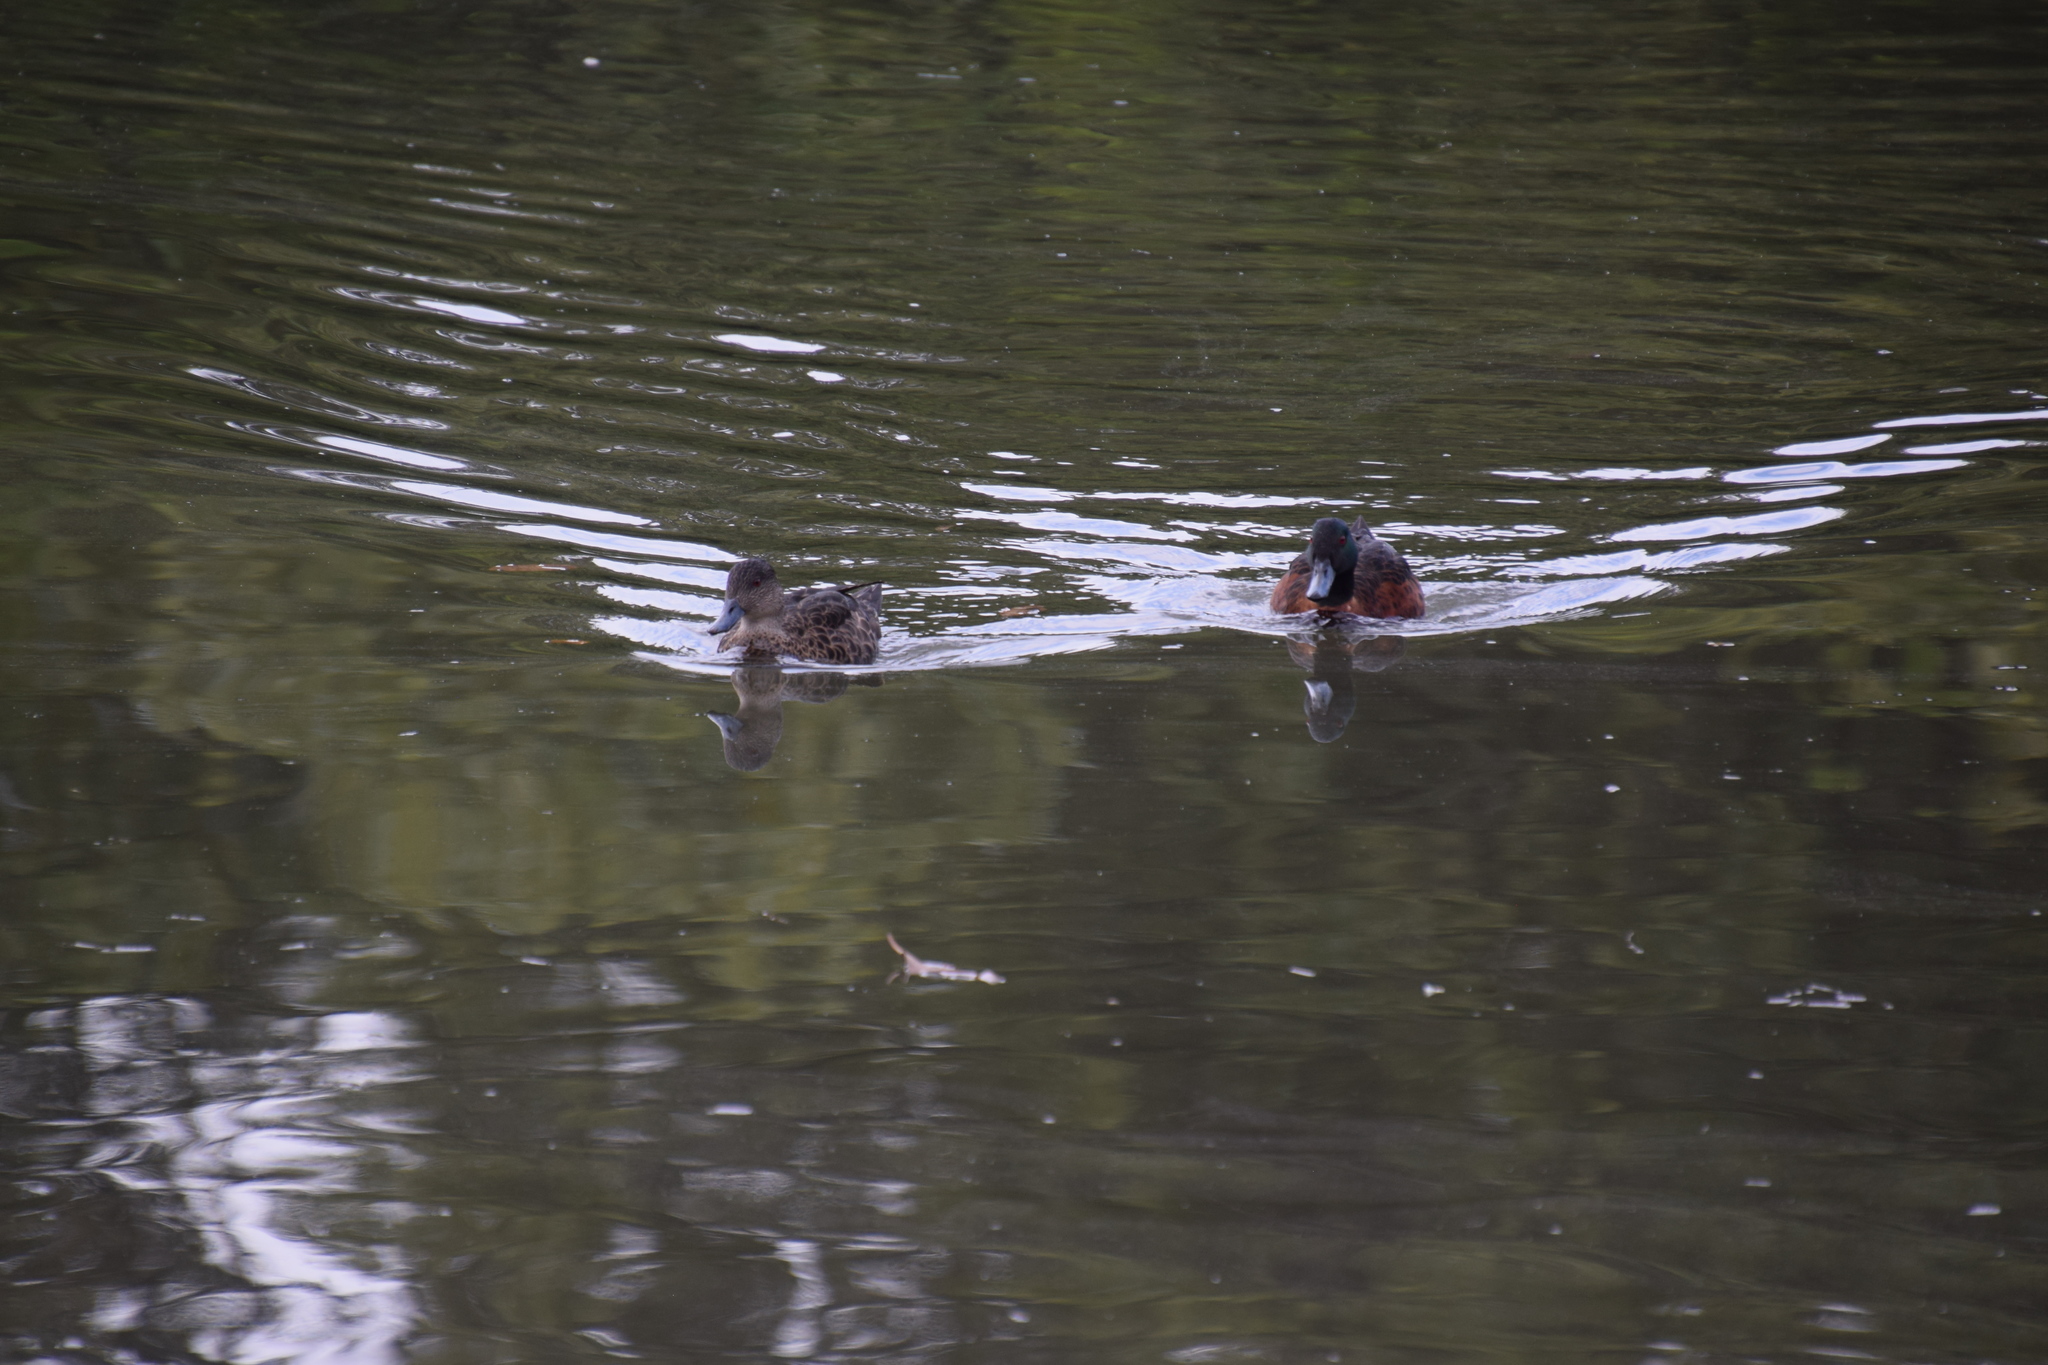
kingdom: Animalia
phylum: Chordata
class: Aves
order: Anseriformes
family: Anatidae
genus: Anas
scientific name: Anas castanea
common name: Chestnut teal
